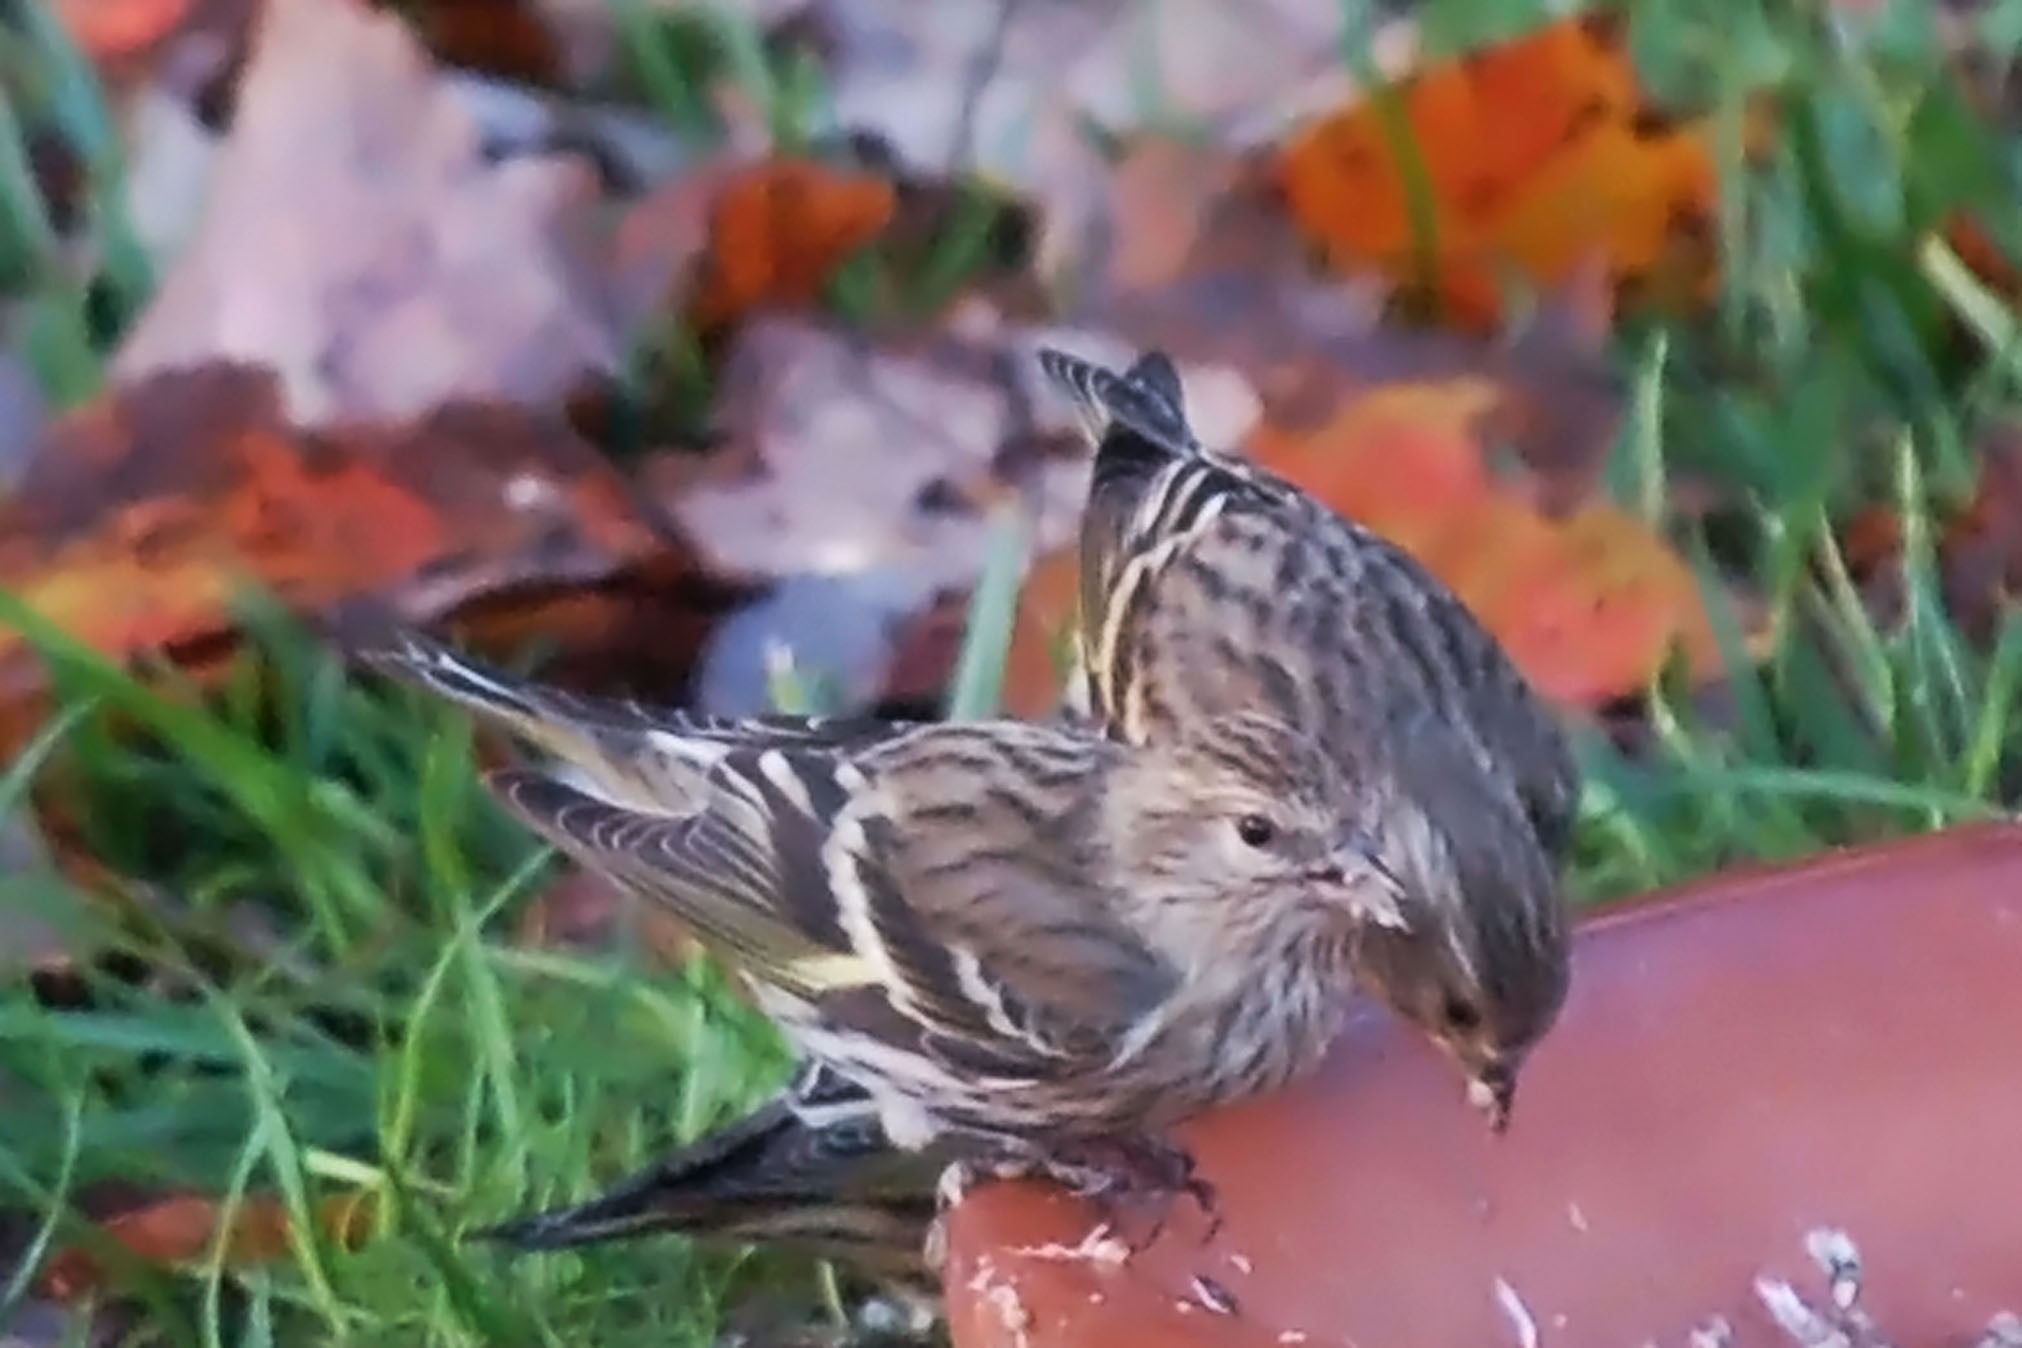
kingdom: Animalia
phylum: Chordata
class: Aves
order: Passeriformes
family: Fringillidae
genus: Spinus
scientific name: Spinus pinus
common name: Pine siskin
